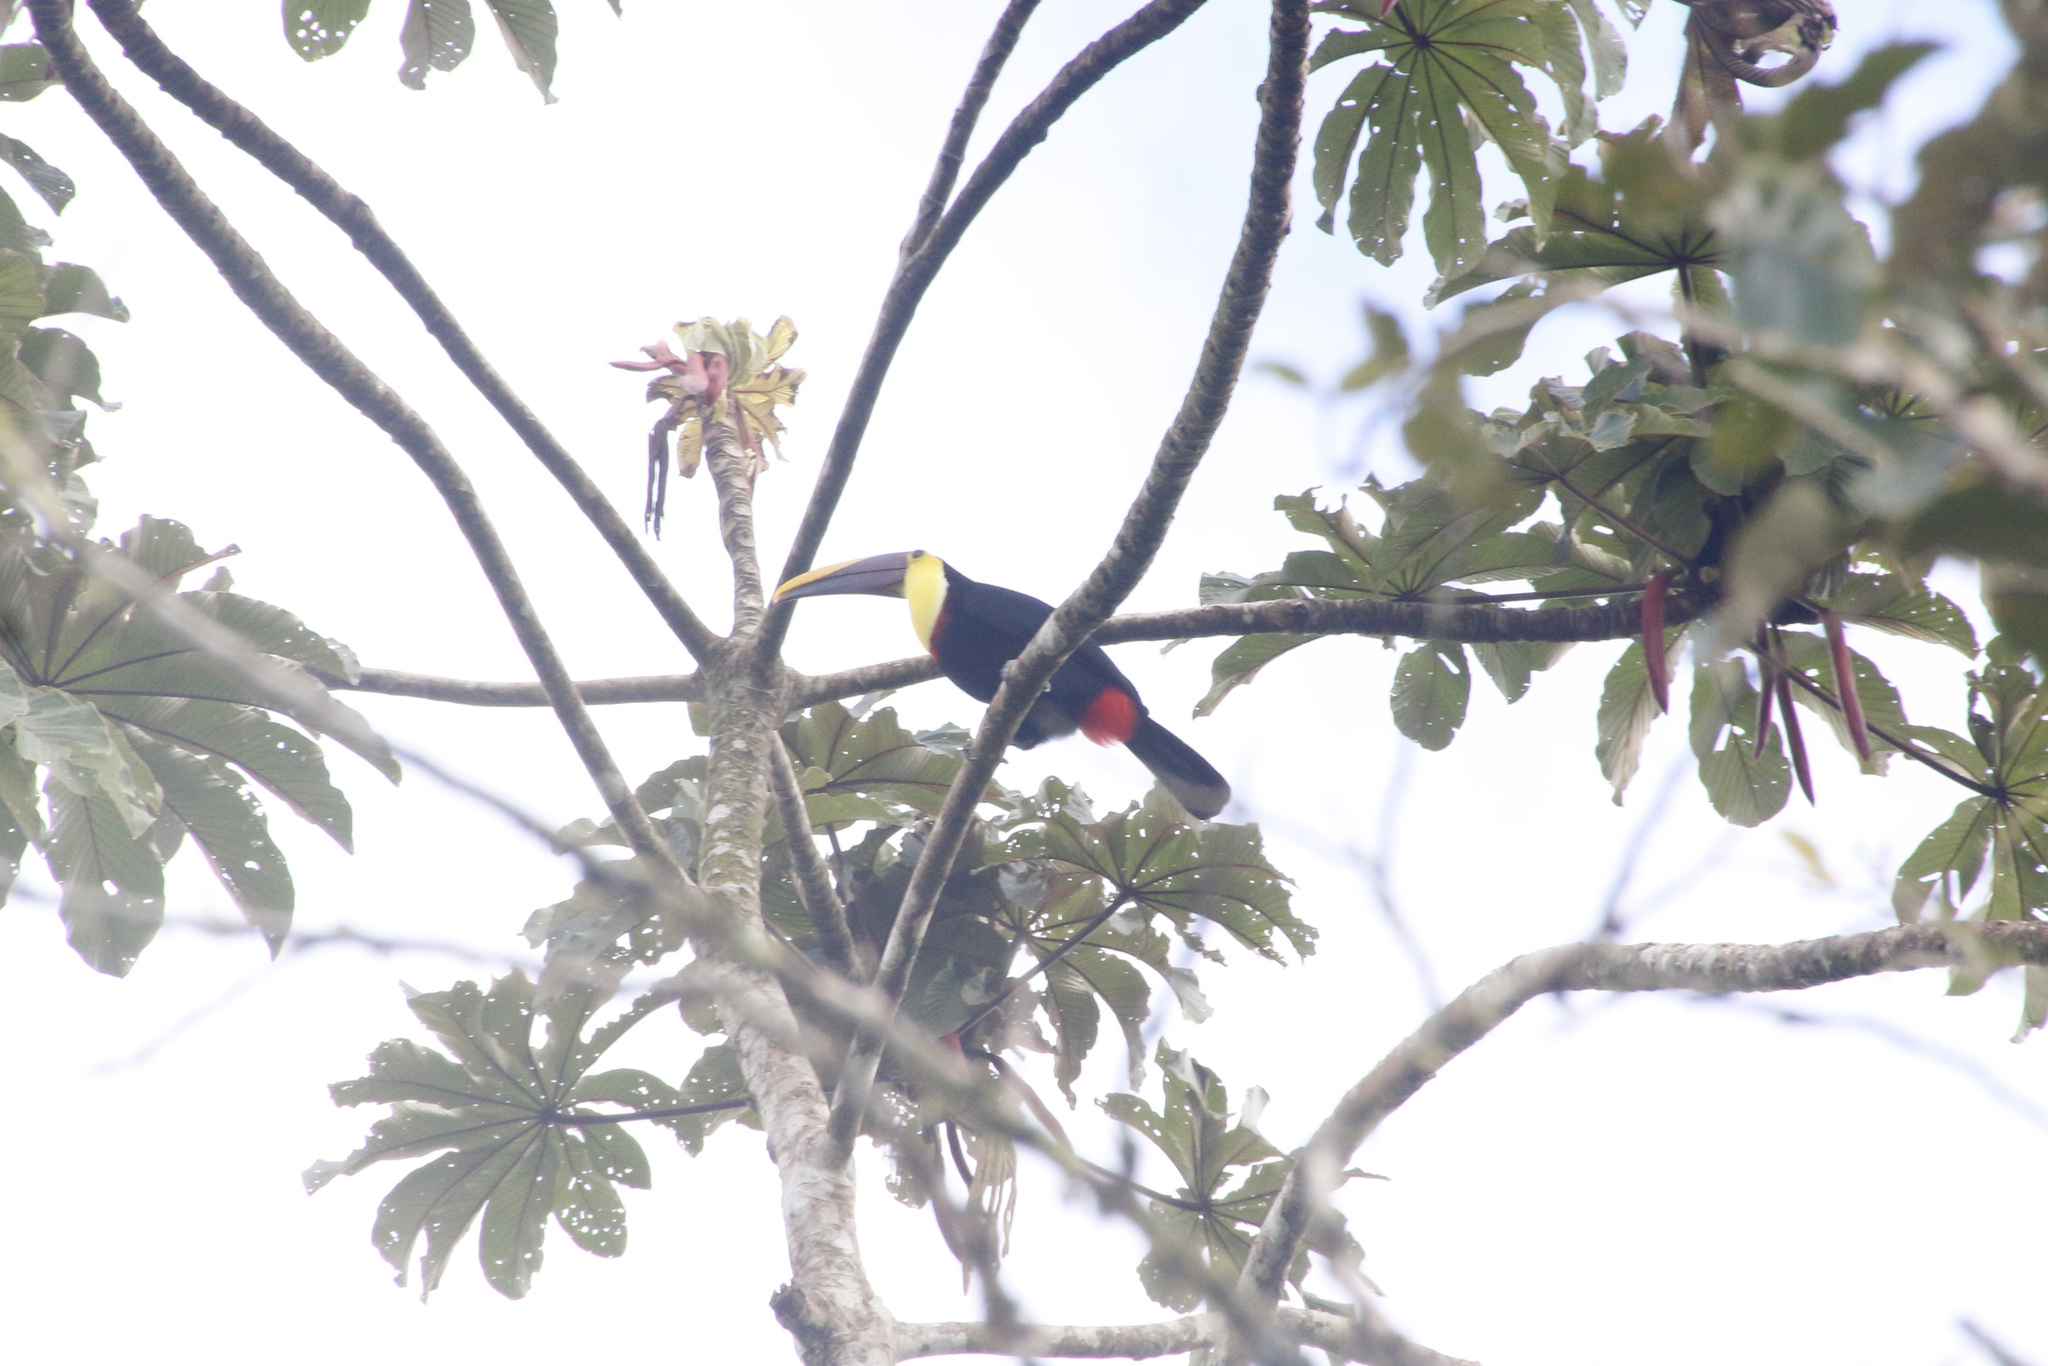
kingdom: Animalia
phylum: Chordata
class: Aves
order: Piciformes
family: Ramphastidae
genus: Ramphastos
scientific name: Ramphastos ambiguus
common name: Yellow-throated toucan
